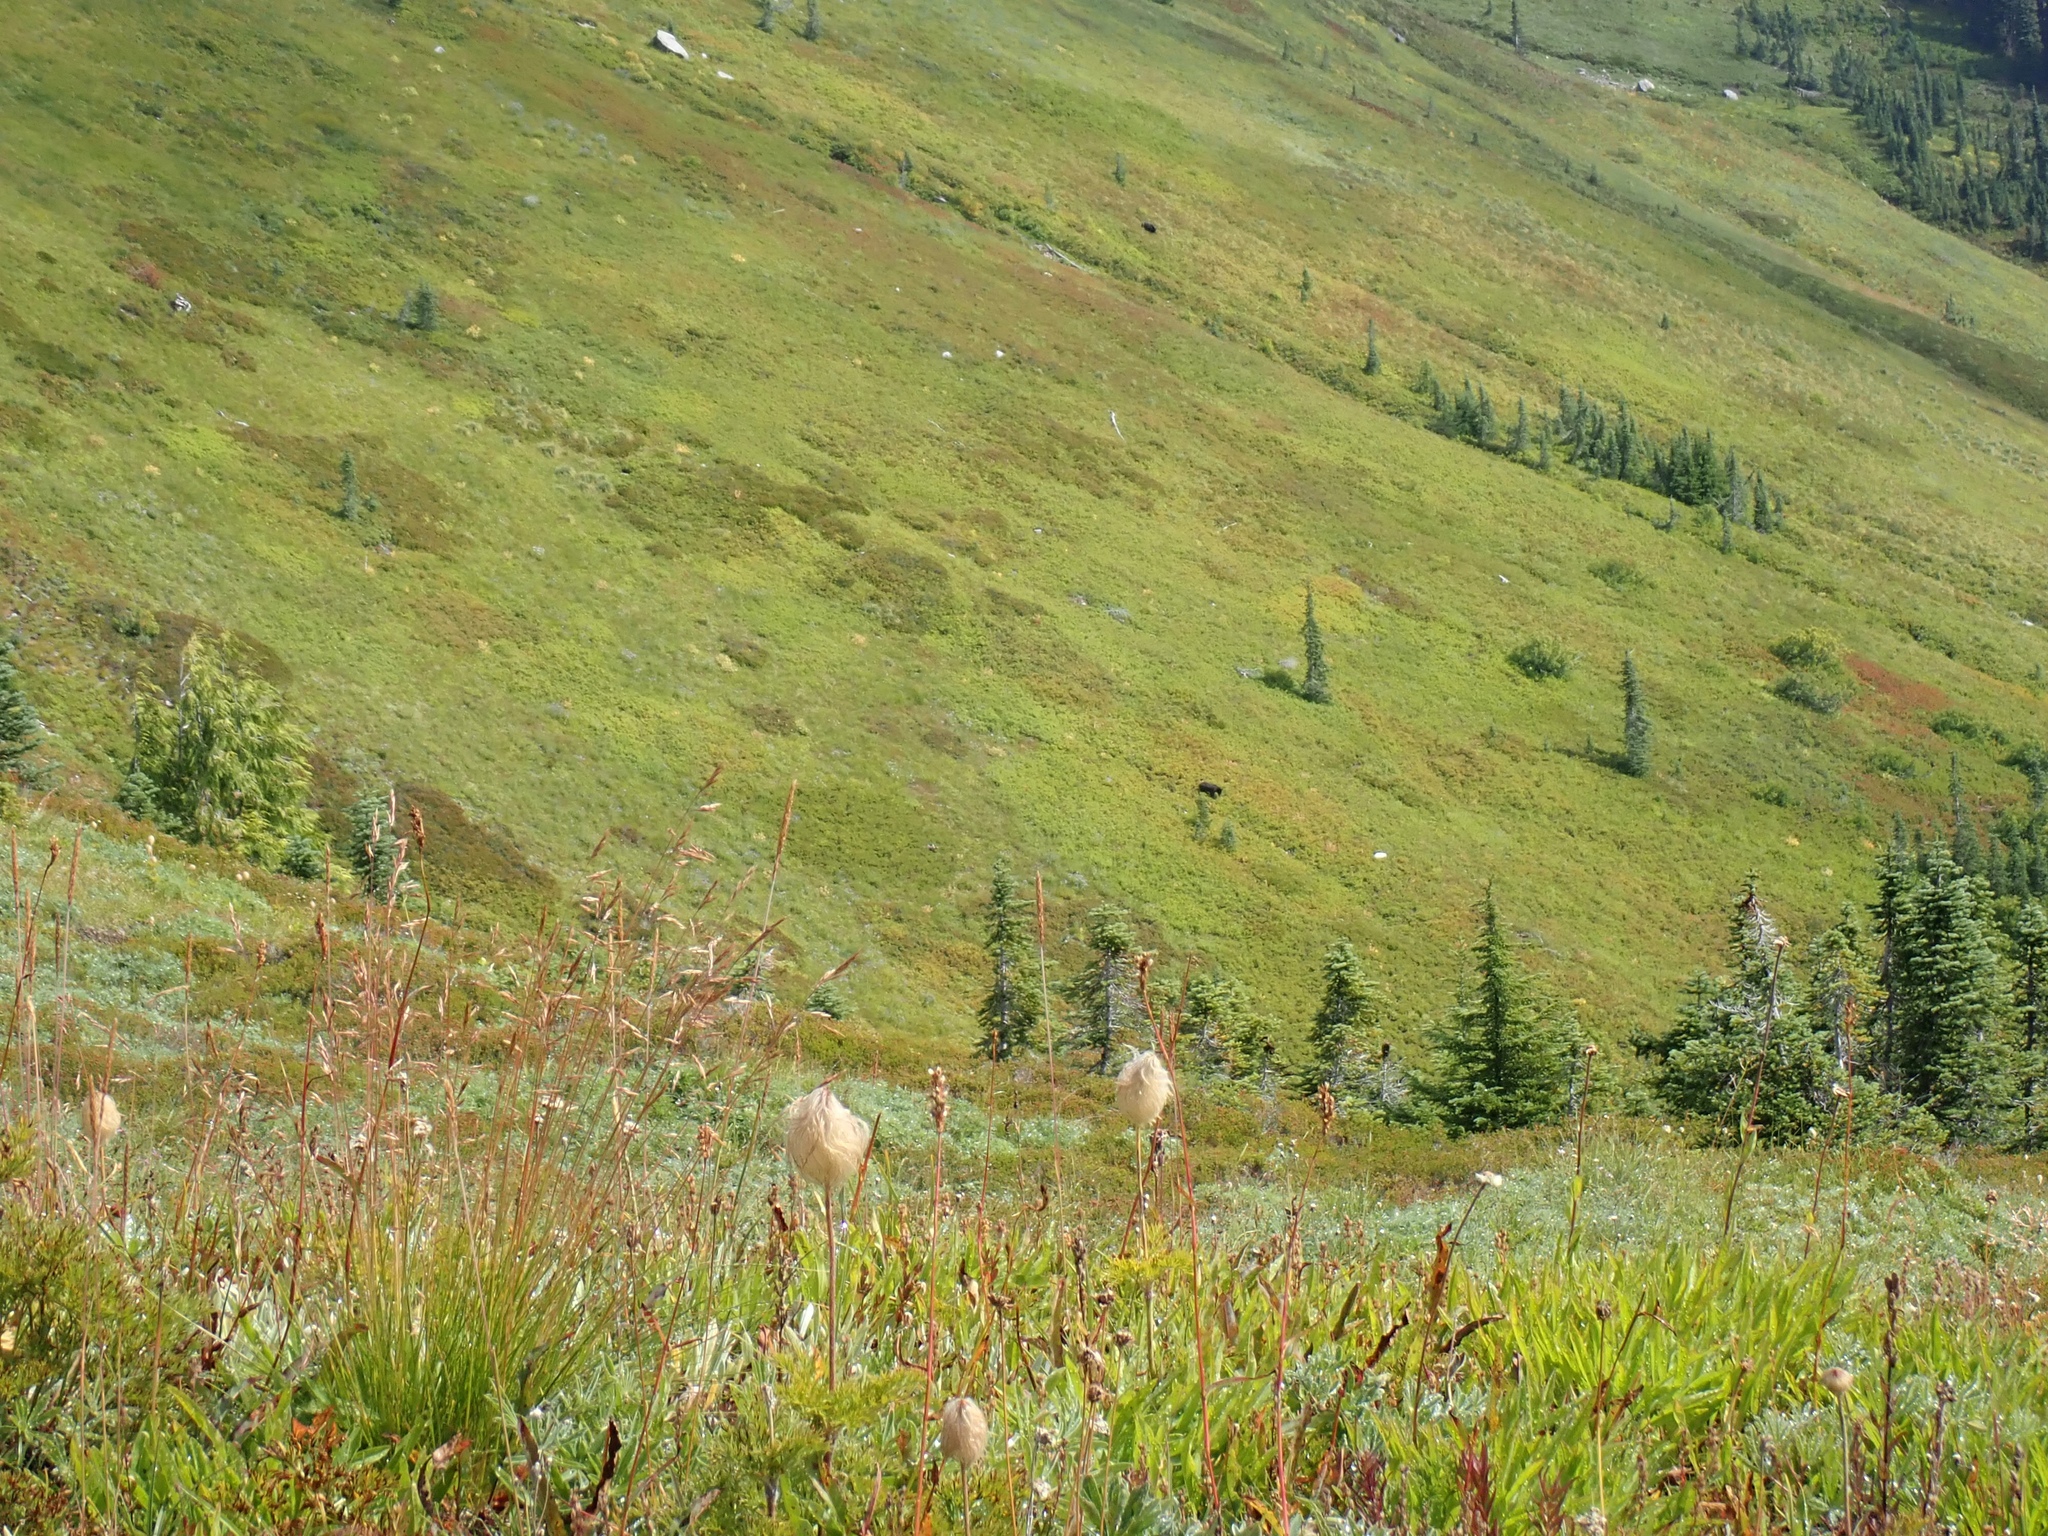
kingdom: Animalia
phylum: Chordata
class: Mammalia
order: Carnivora
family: Ursidae
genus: Ursus
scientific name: Ursus americanus
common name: American black bear
